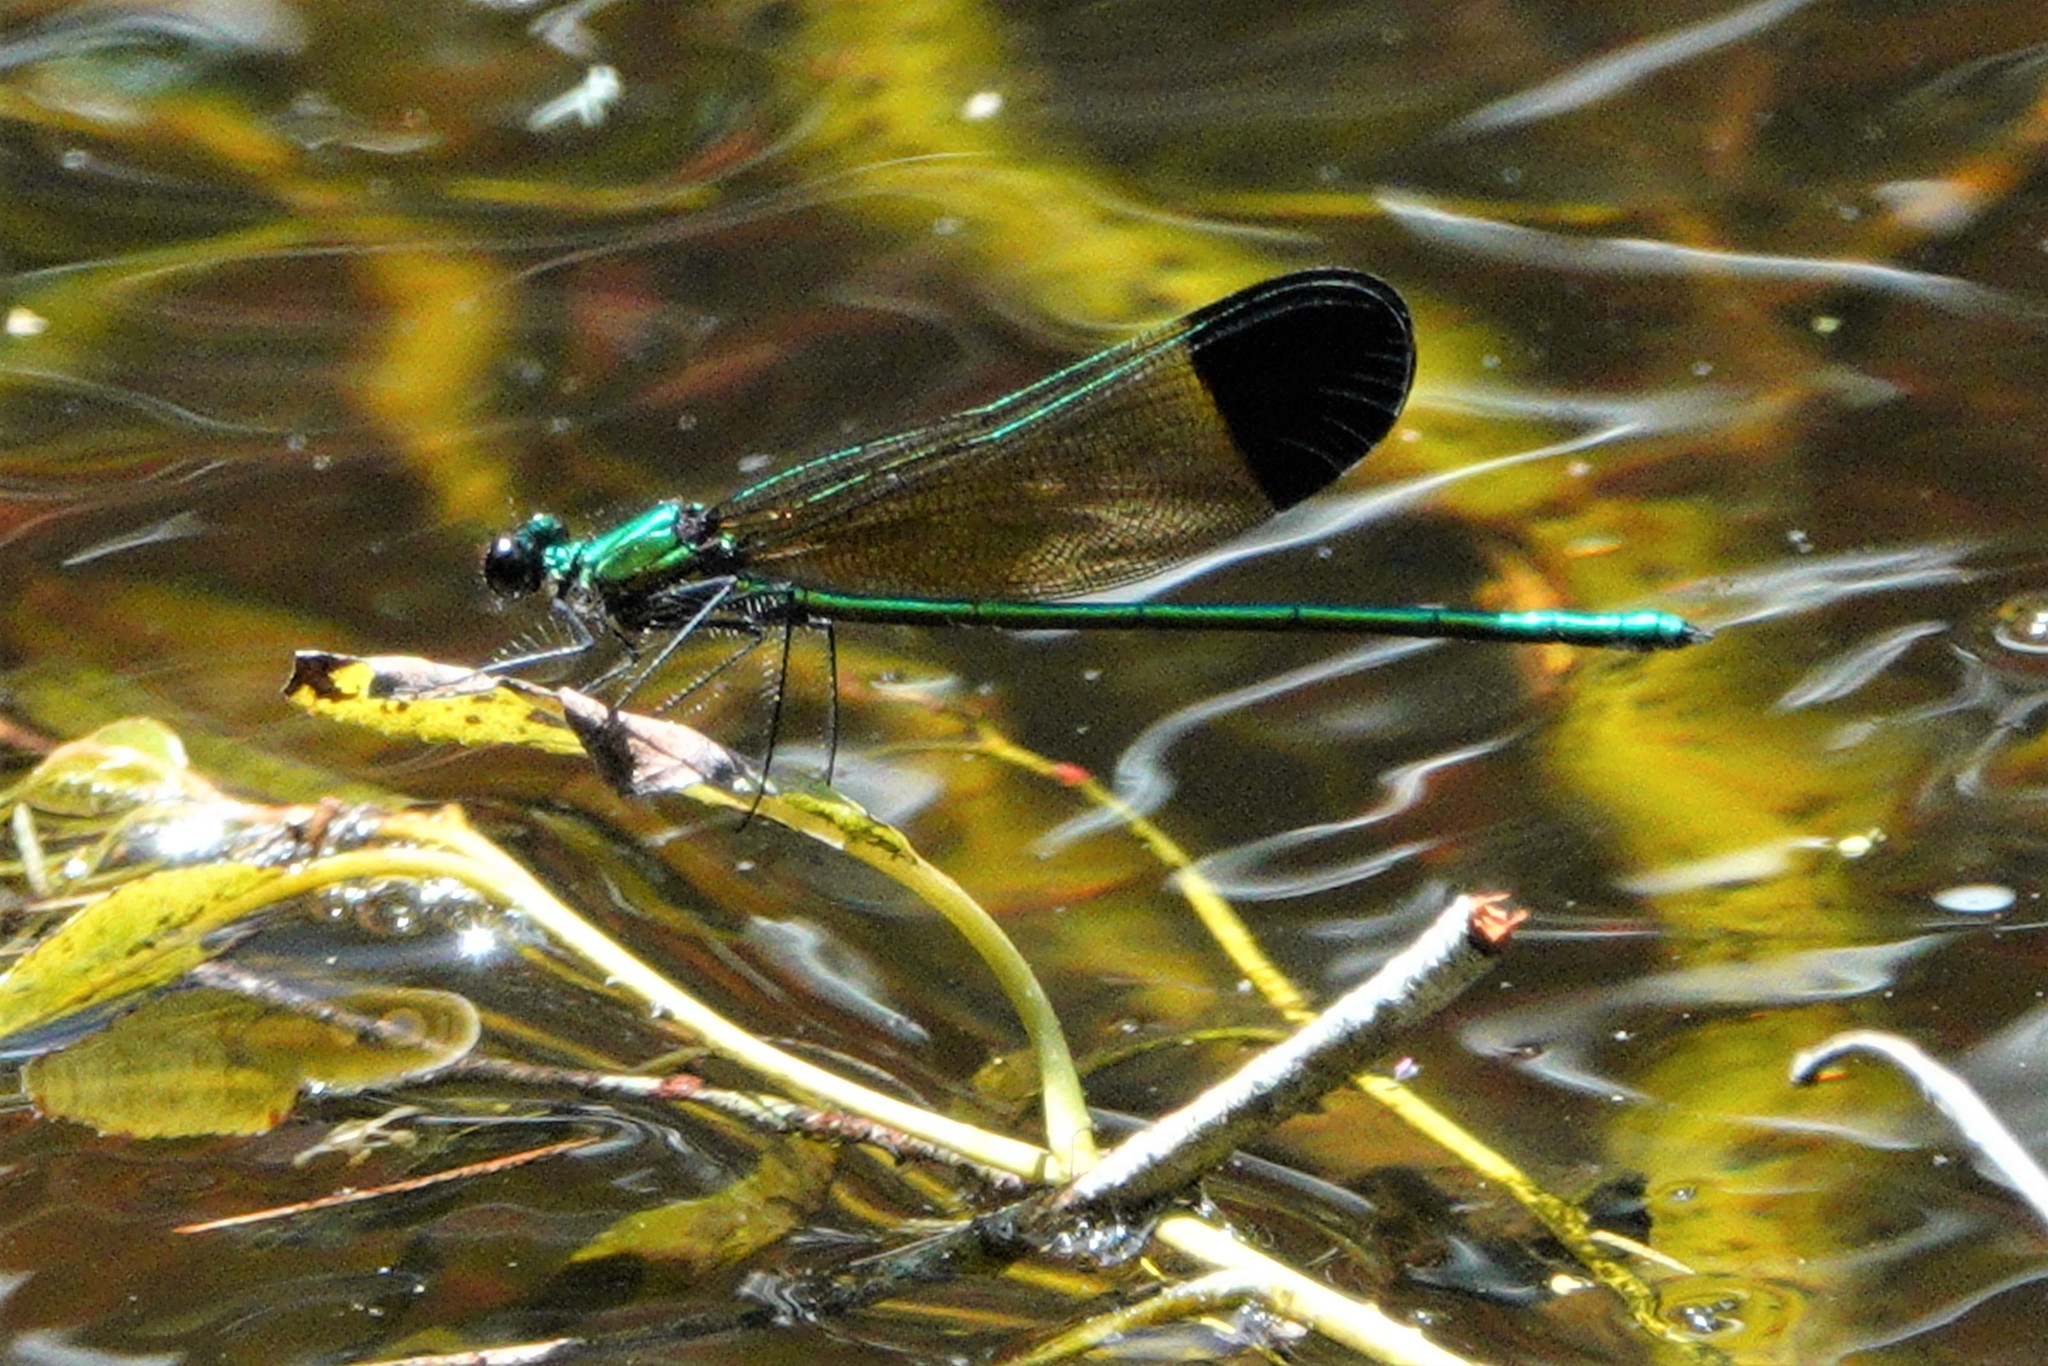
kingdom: Animalia
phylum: Arthropoda
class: Insecta
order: Odonata
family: Calopterygidae
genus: Calopteryx
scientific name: Calopteryx dimidiata
